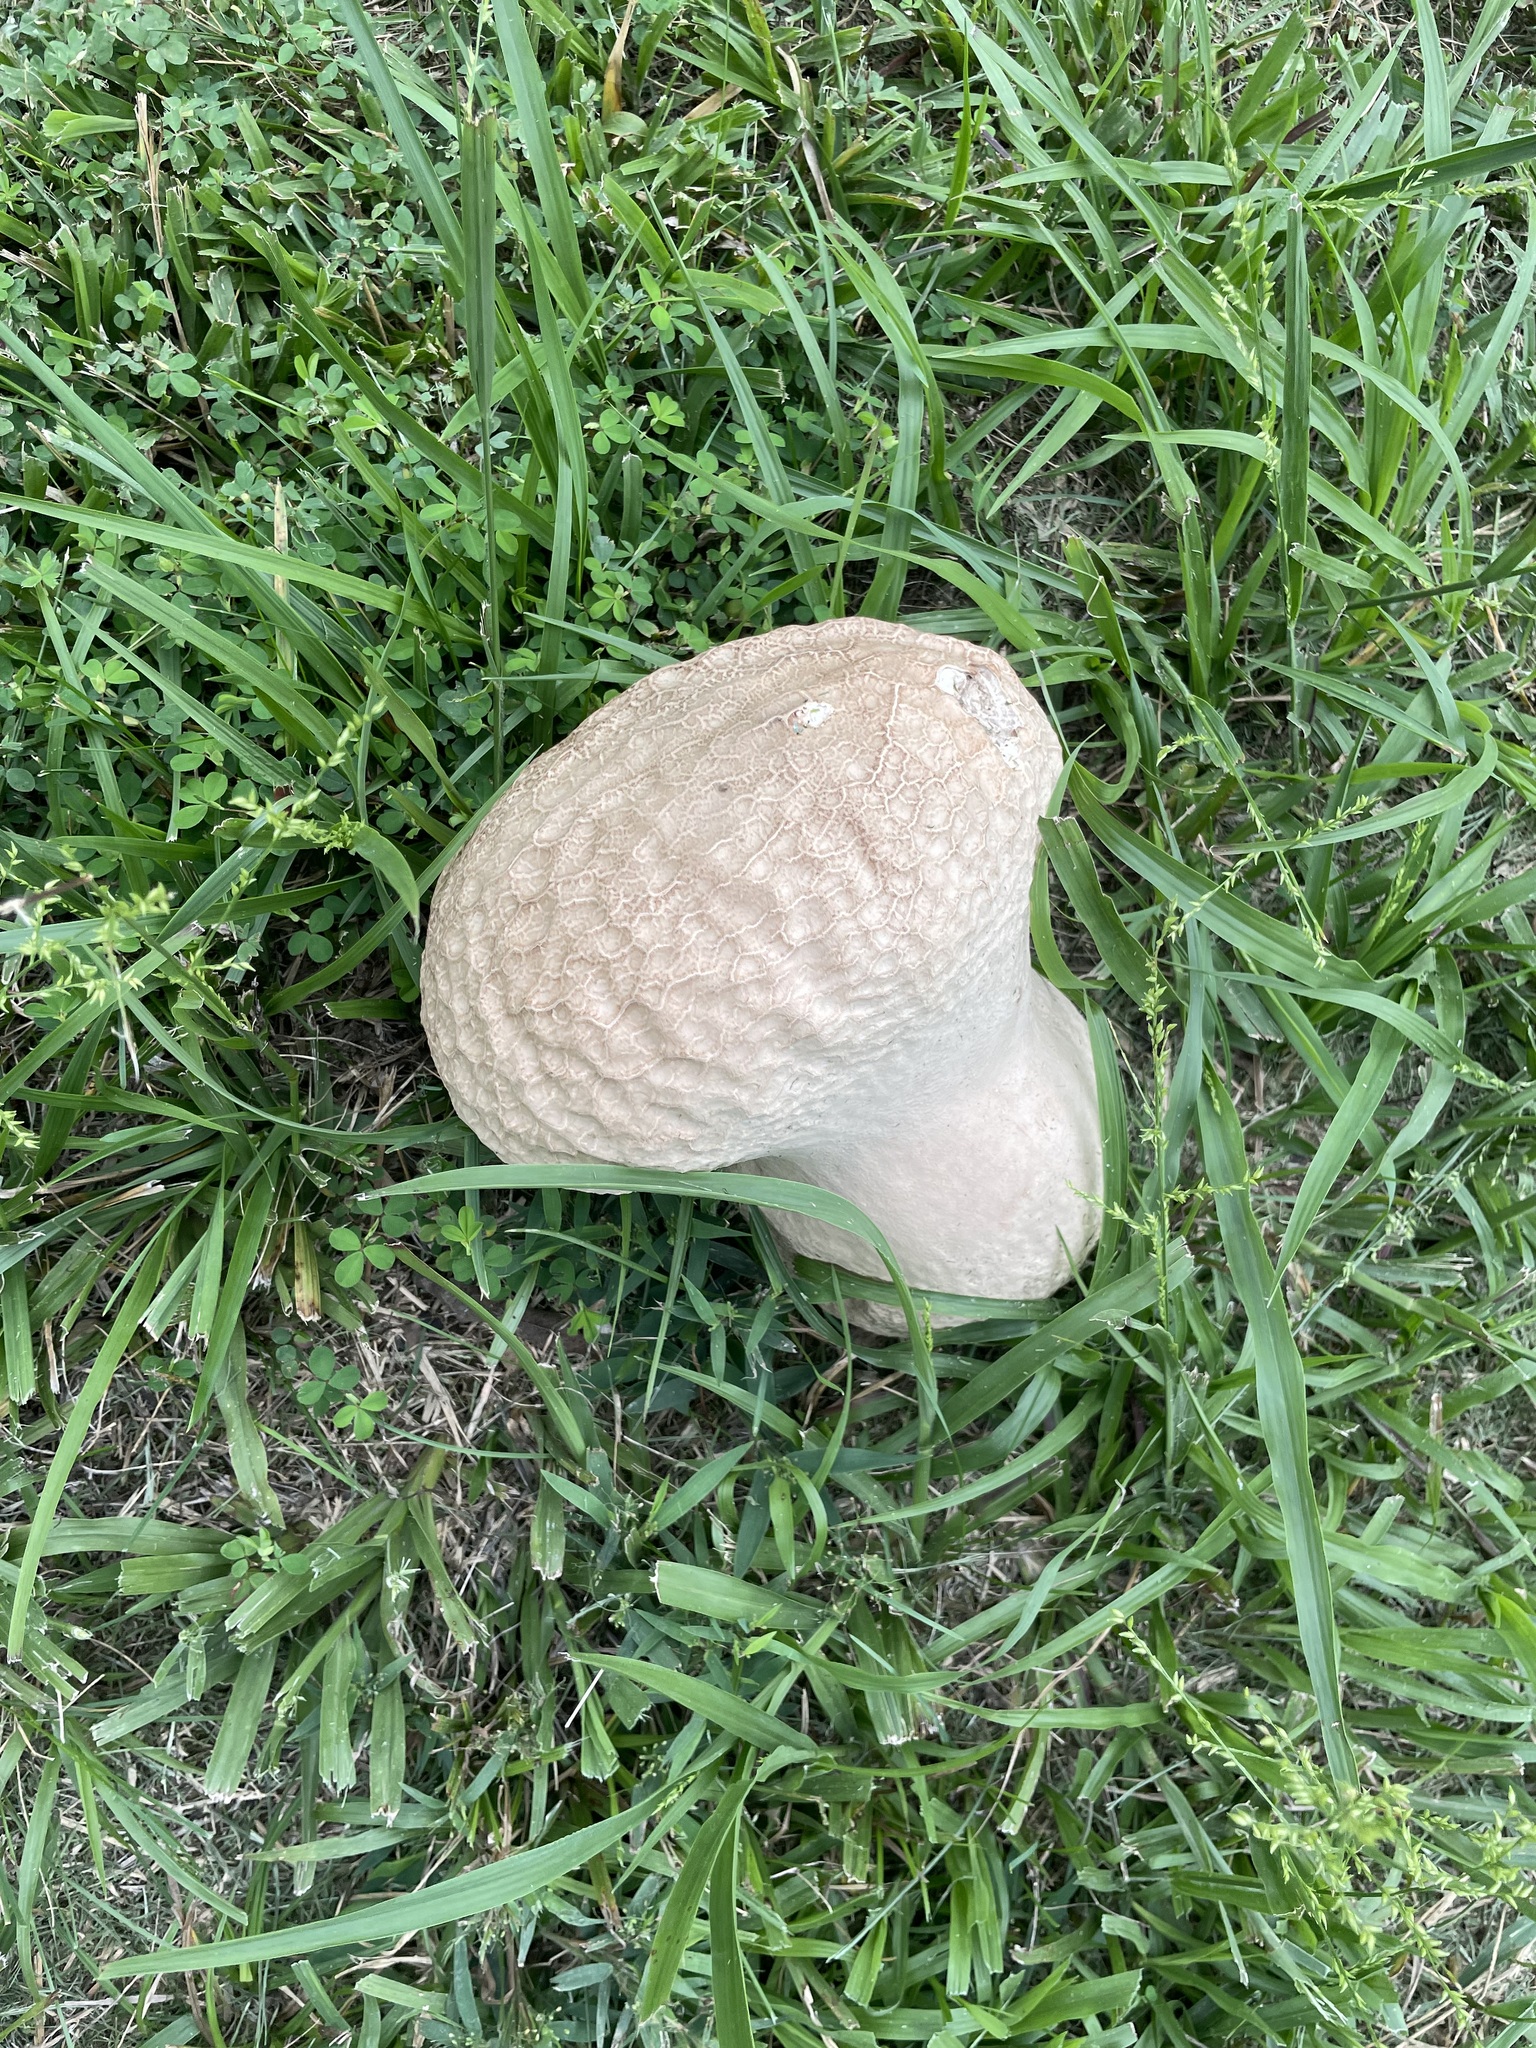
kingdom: Fungi
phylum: Basidiomycota
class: Agaricomycetes
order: Agaricales
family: Lycoperdaceae
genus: Calvatia
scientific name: Calvatia craniiformis
